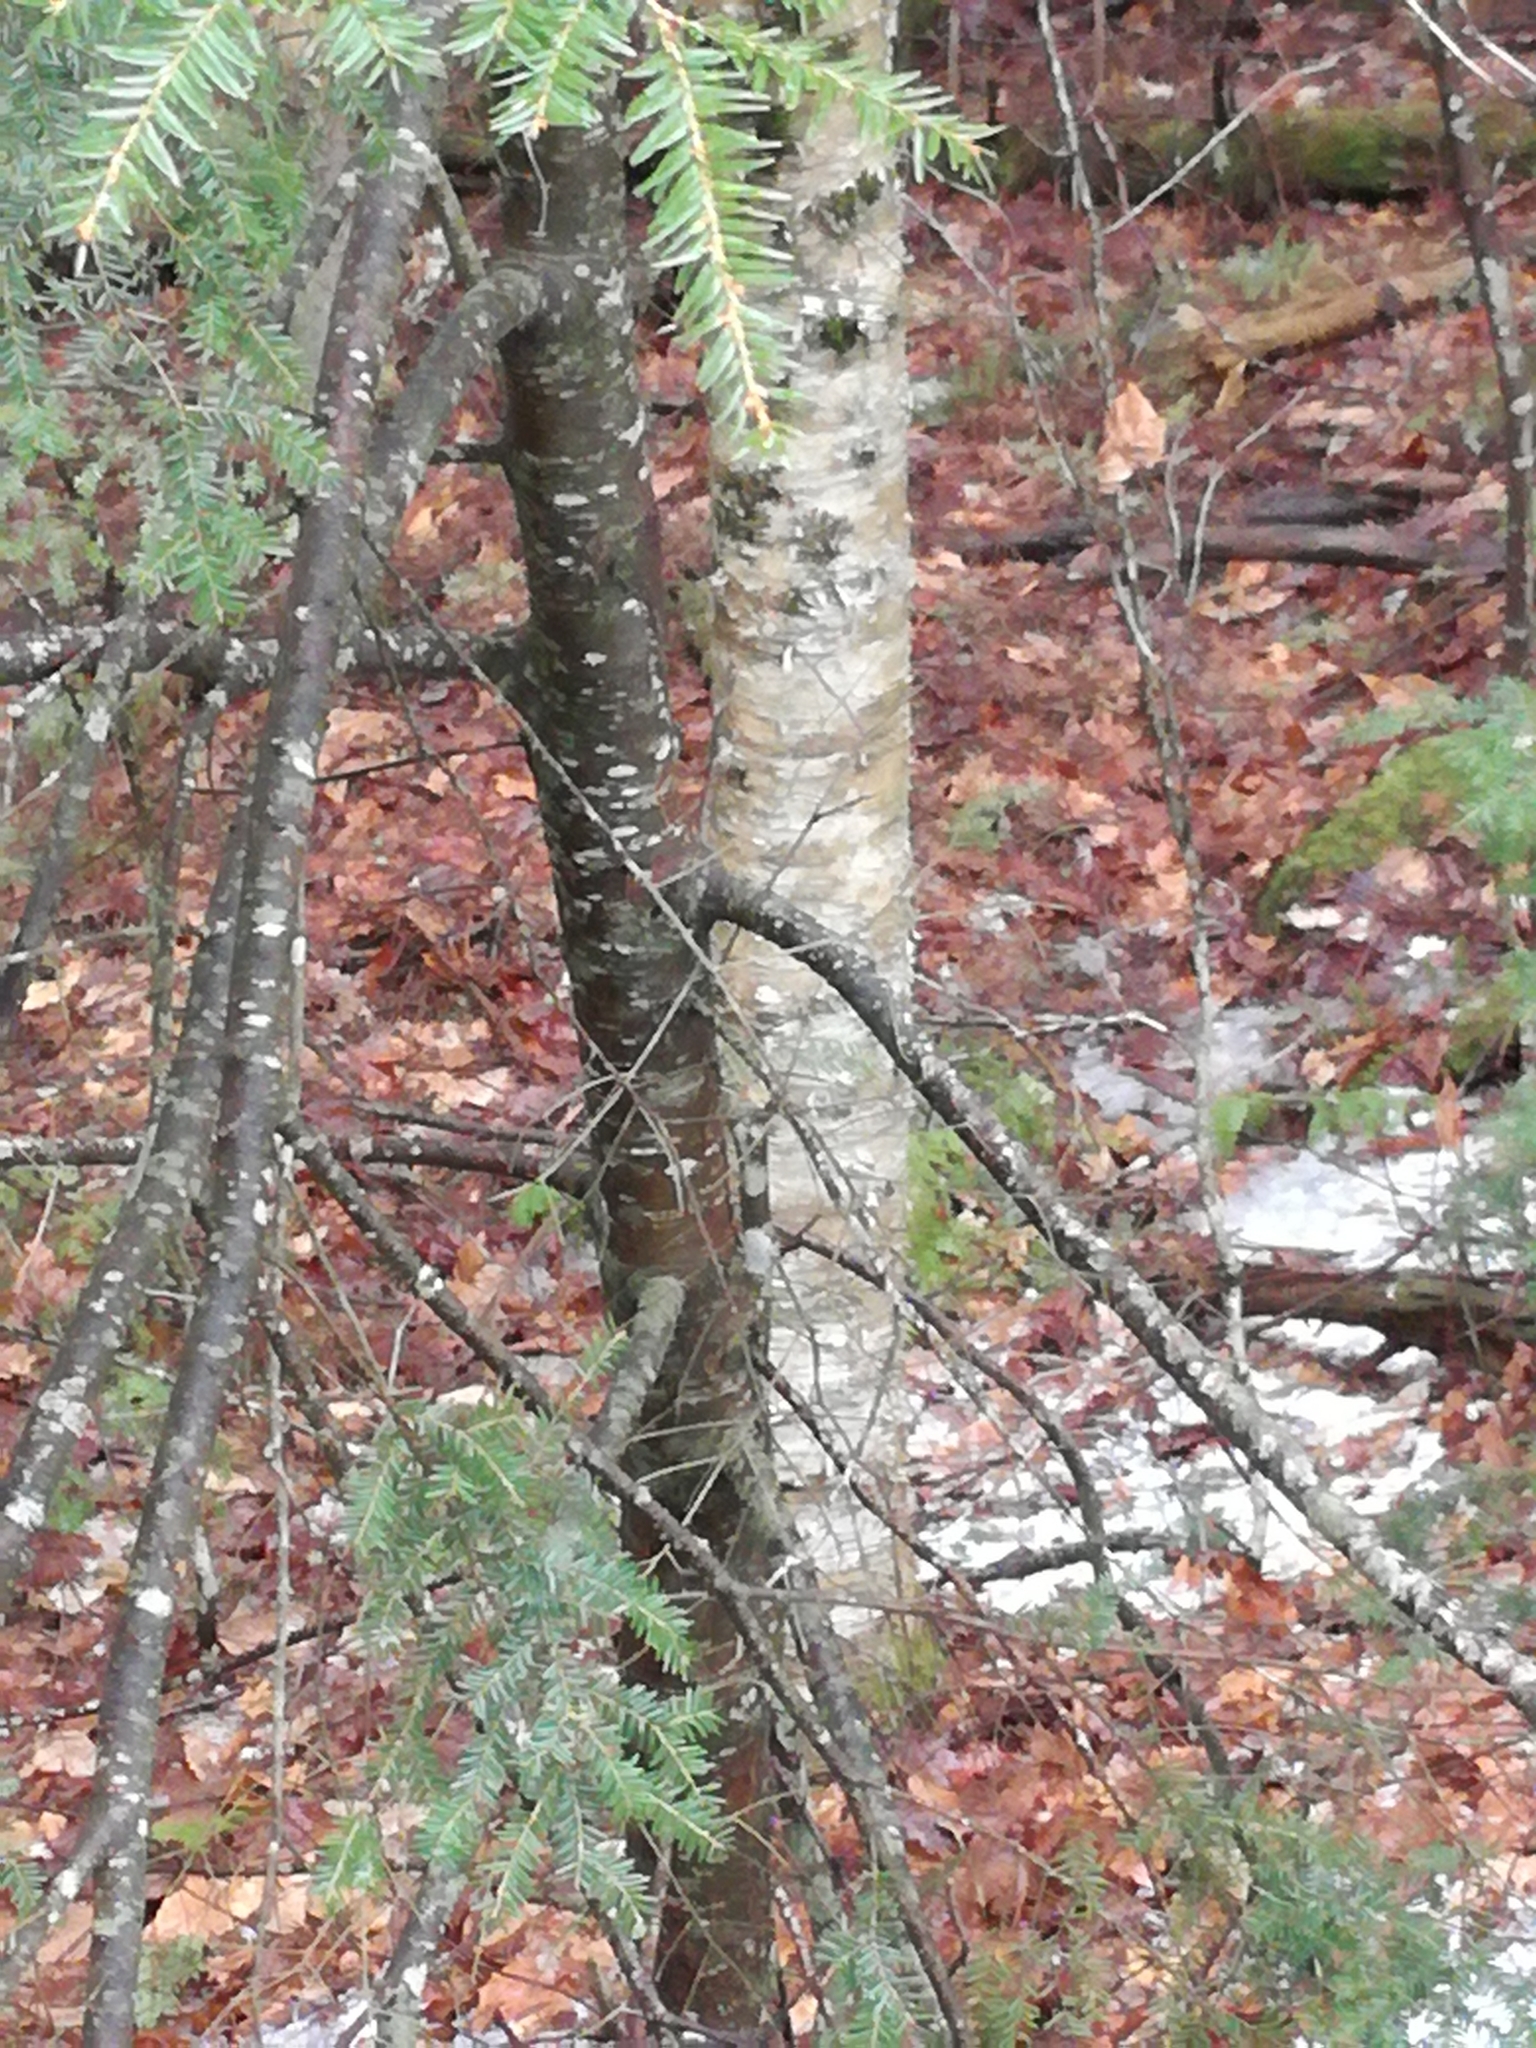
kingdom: Plantae
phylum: Tracheophyta
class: Pinopsida
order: Pinales
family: Pinaceae
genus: Tsuga
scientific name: Tsuga canadensis
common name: Eastern hemlock
